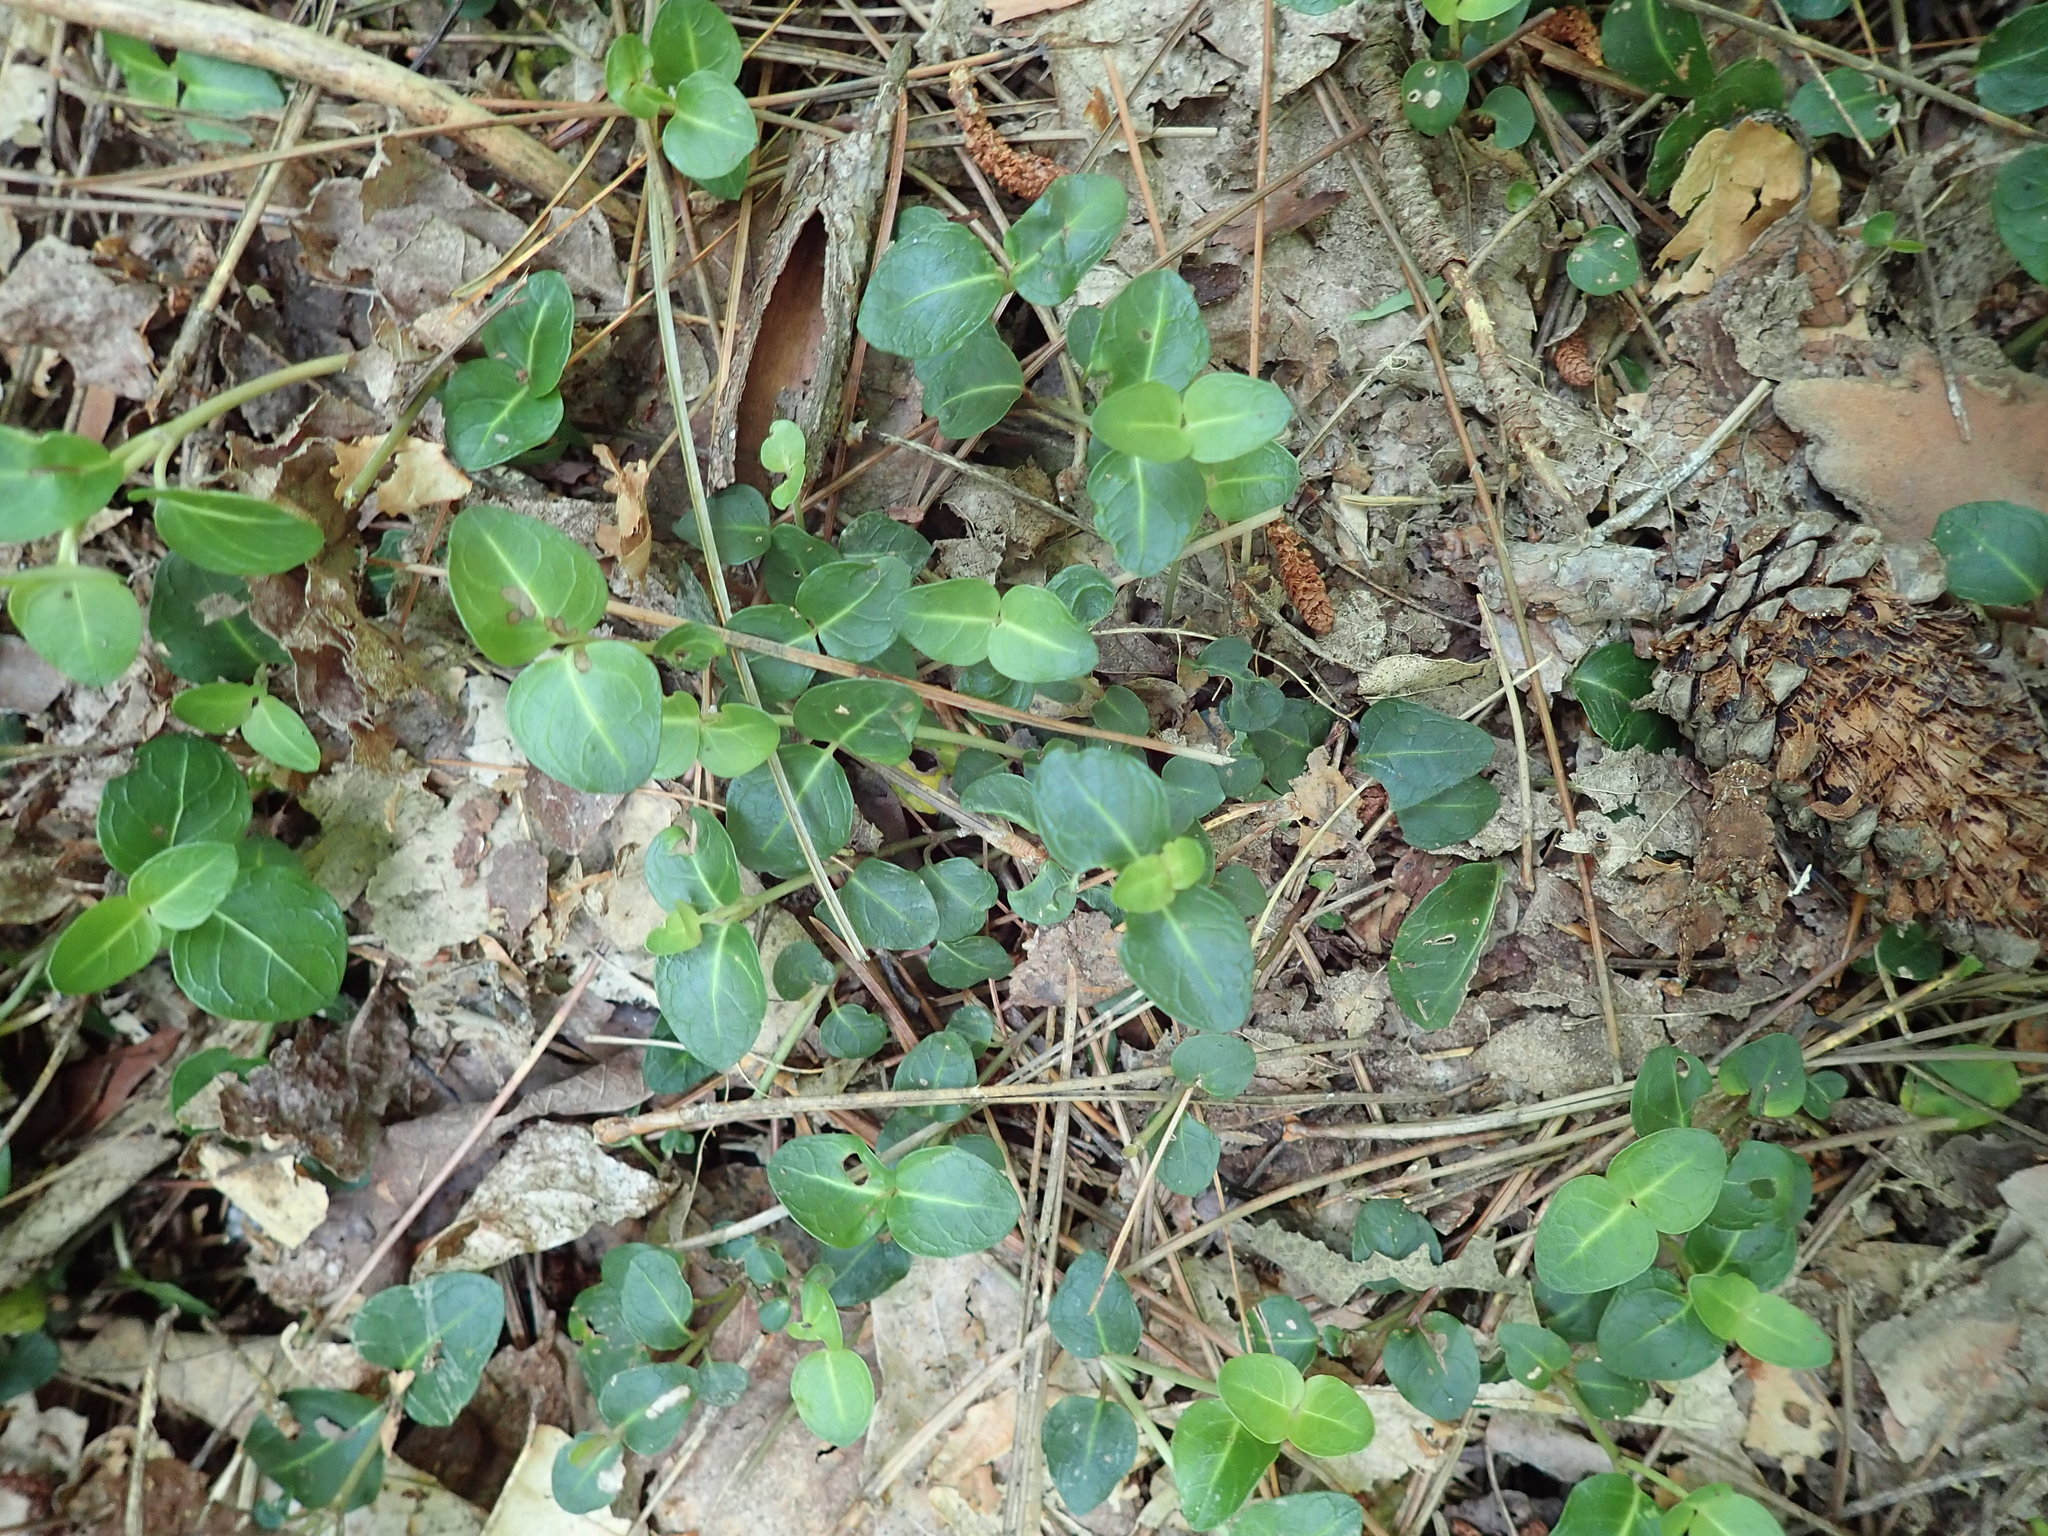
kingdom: Plantae
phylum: Tracheophyta
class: Magnoliopsida
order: Gentianales
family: Rubiaceae
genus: Mitchella
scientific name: Mitchella repens
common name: Partridge-berry
